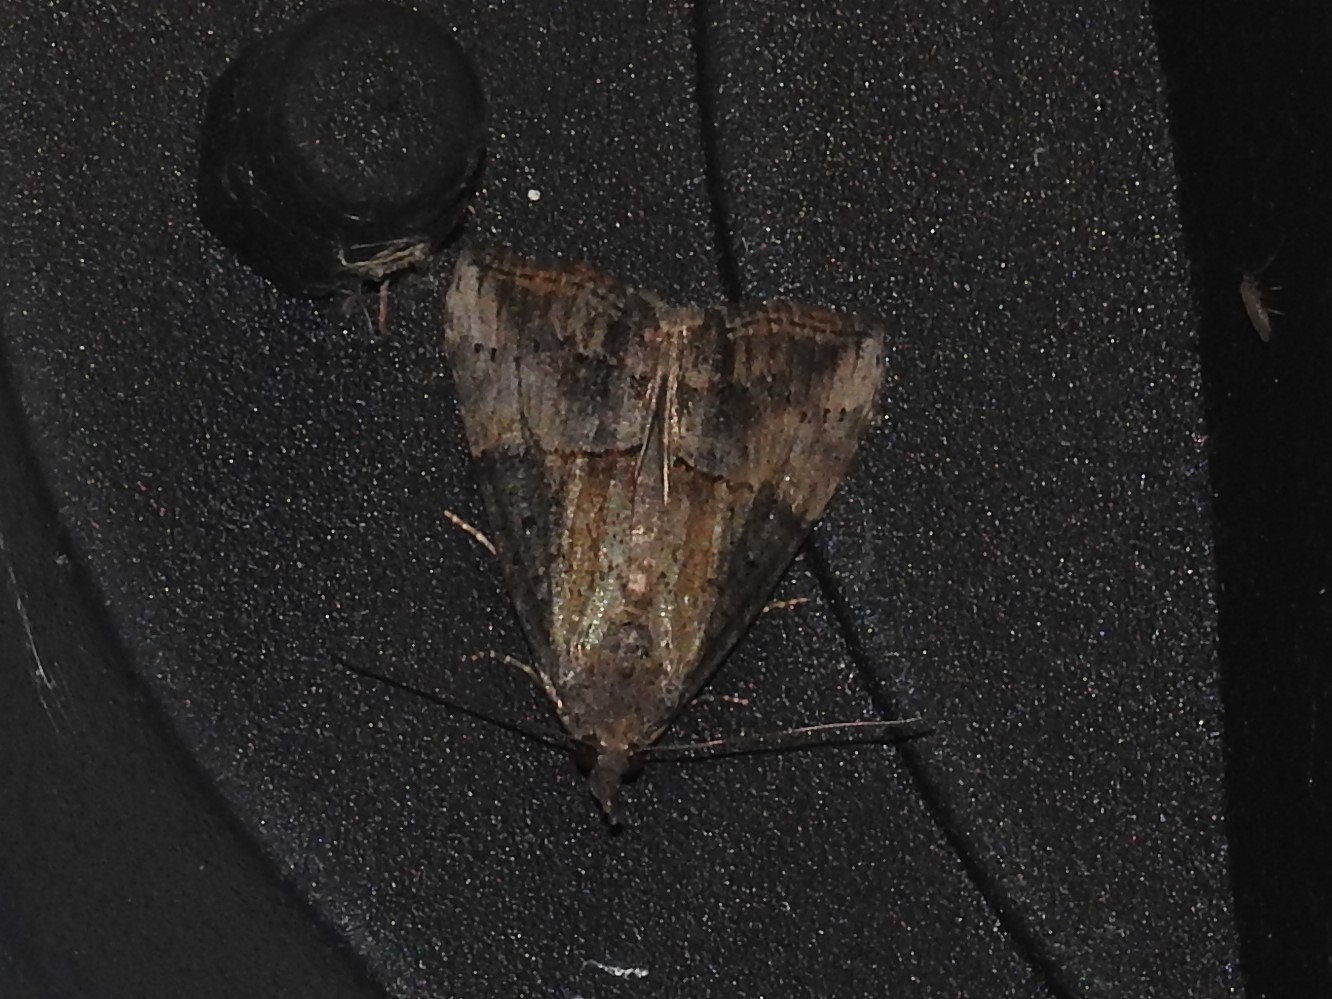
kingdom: Animalia
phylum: Arthropoda
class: Insecta
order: Lepidoptera
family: Erebidae
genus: Hypena
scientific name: Hypena scabra
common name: Green cloverworm
